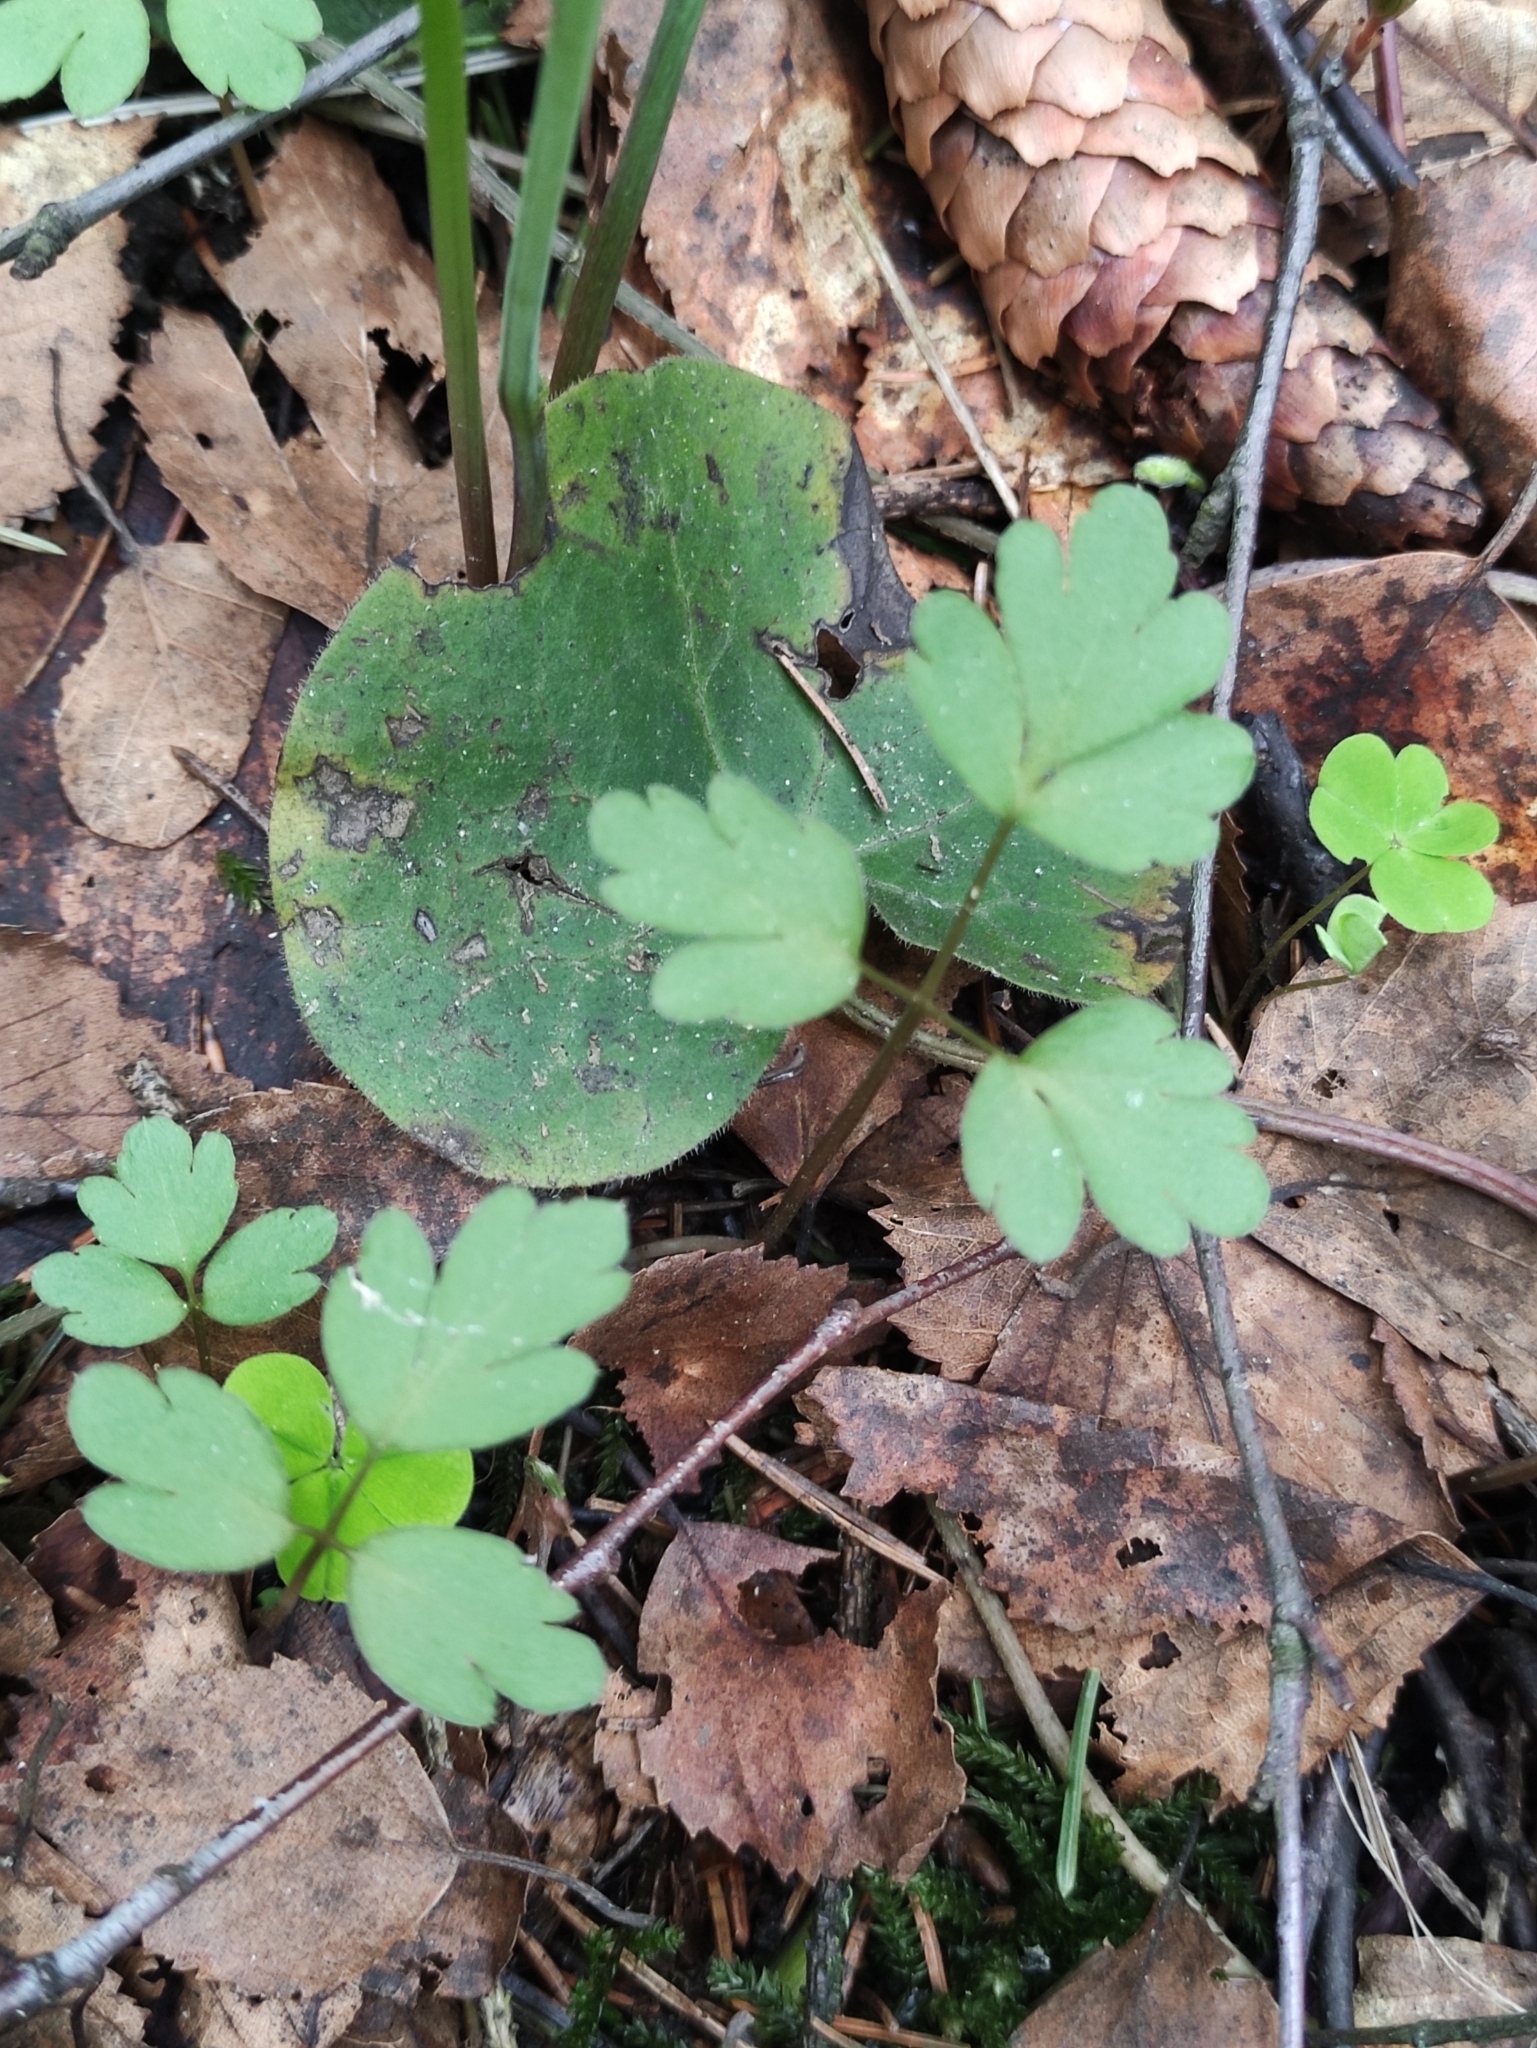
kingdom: Plantae
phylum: Tracheophyta
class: Magnoliopsida
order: Dipsacales
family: Viburnaceae
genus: Adoxa
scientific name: Adoxa moschatellina
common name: Moschatel
